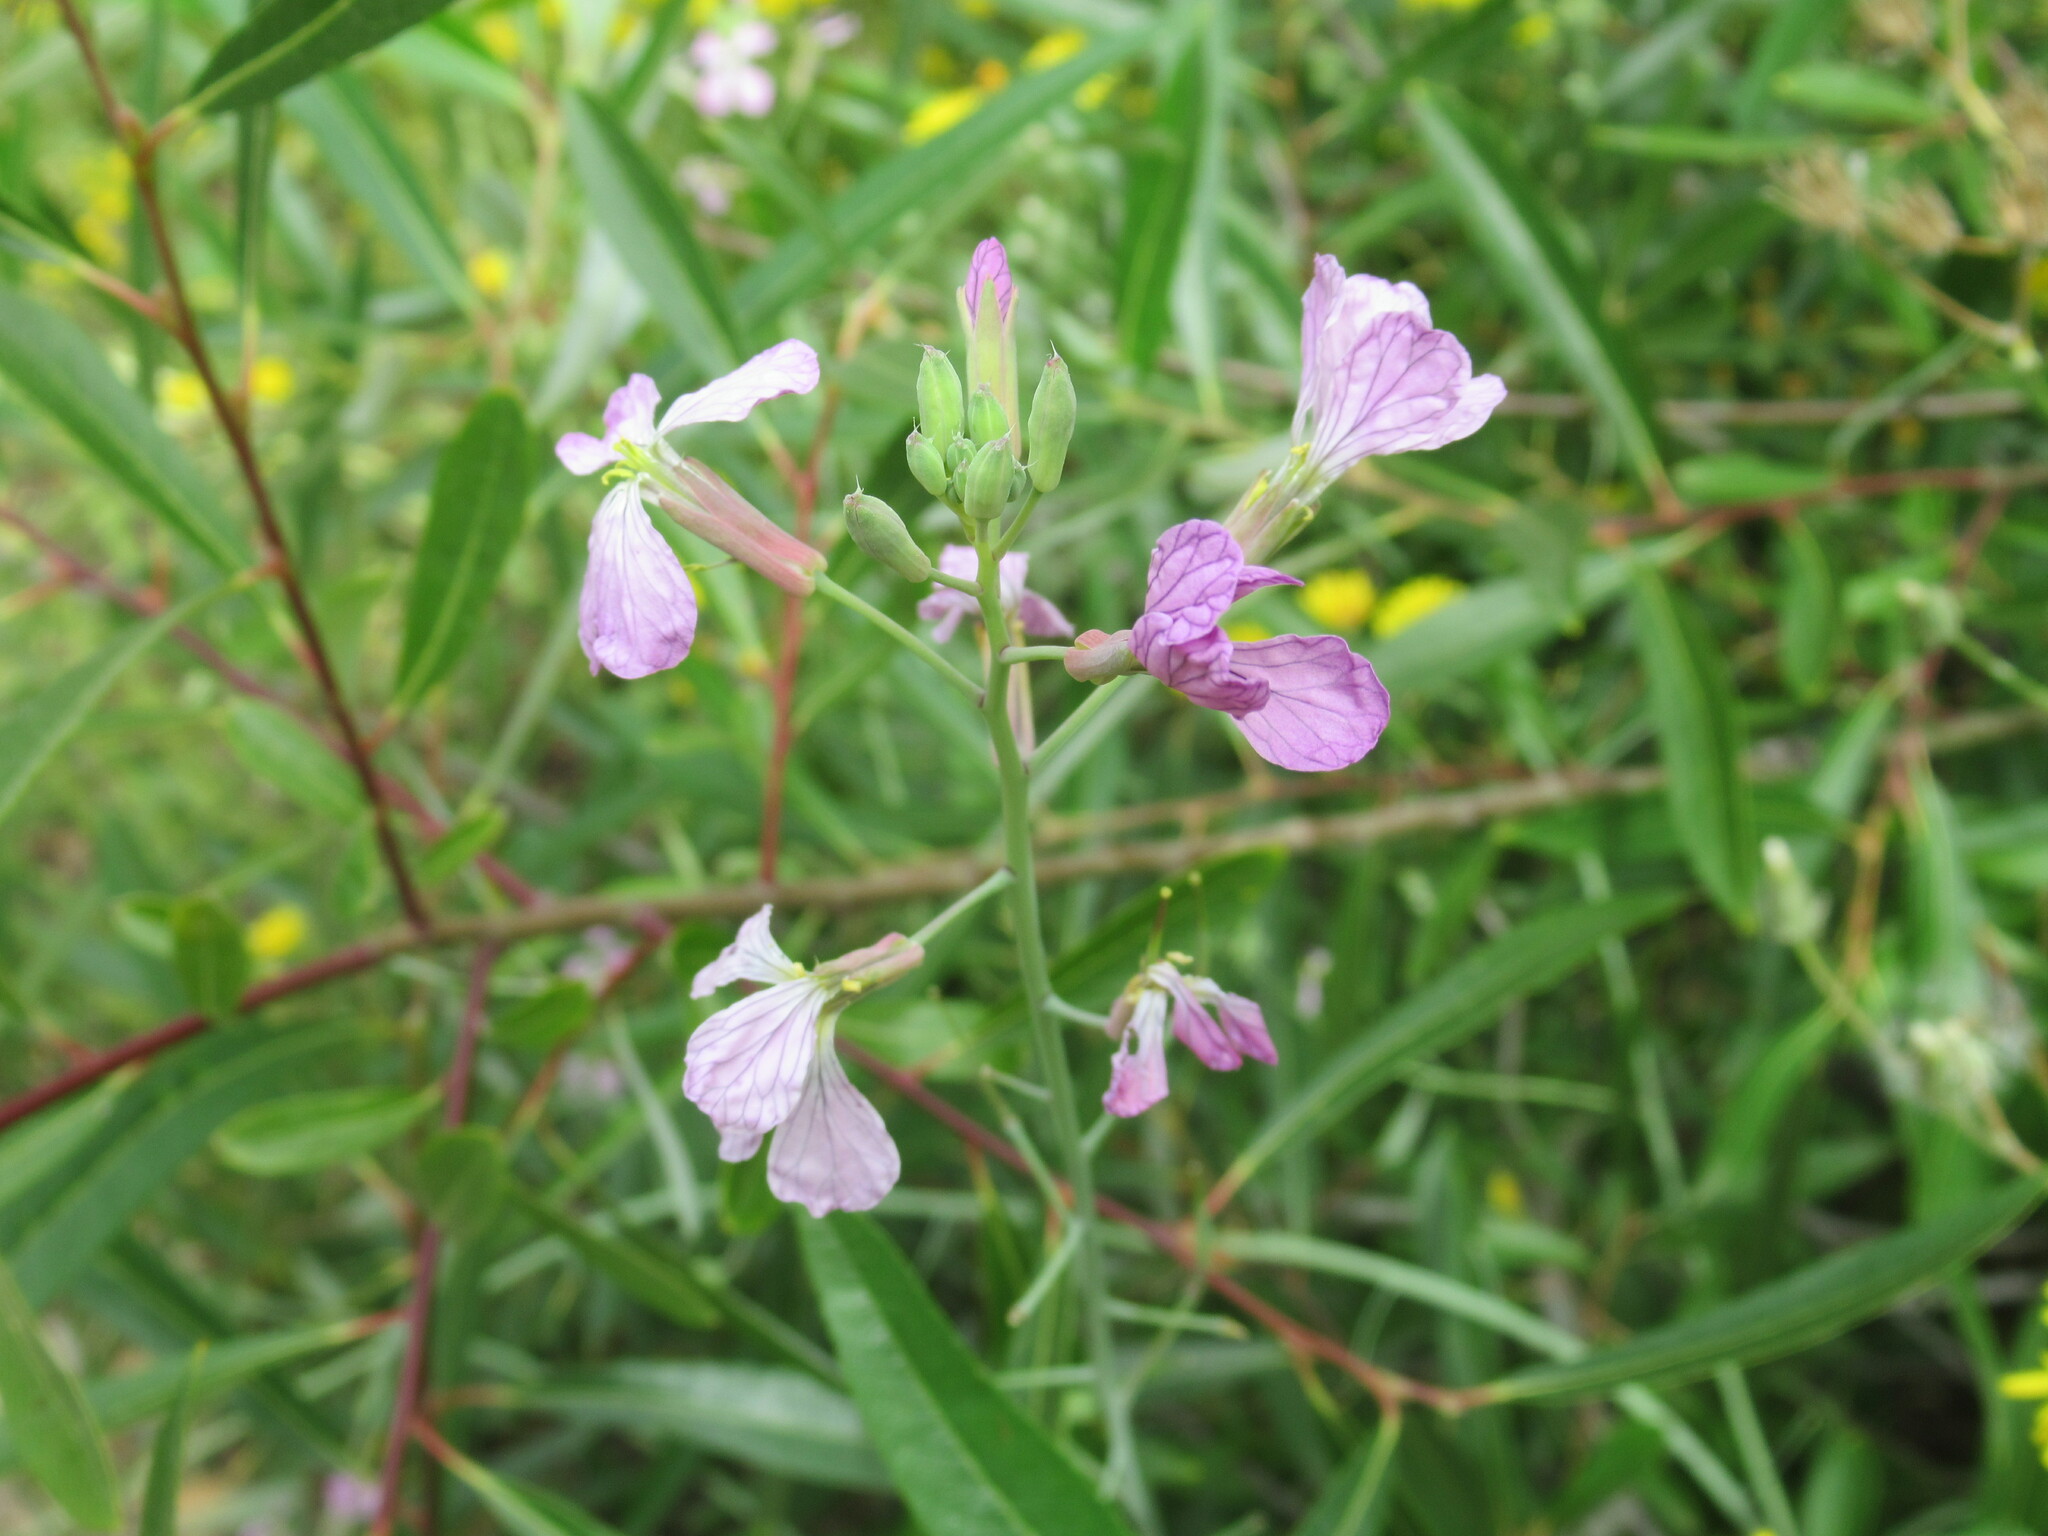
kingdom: Plantae
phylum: Tracheophyta
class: Magnoliopsida
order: Brassicales
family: Brassicaceae
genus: Raphanus
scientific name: Raphanus sativus
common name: Cultivated radish
